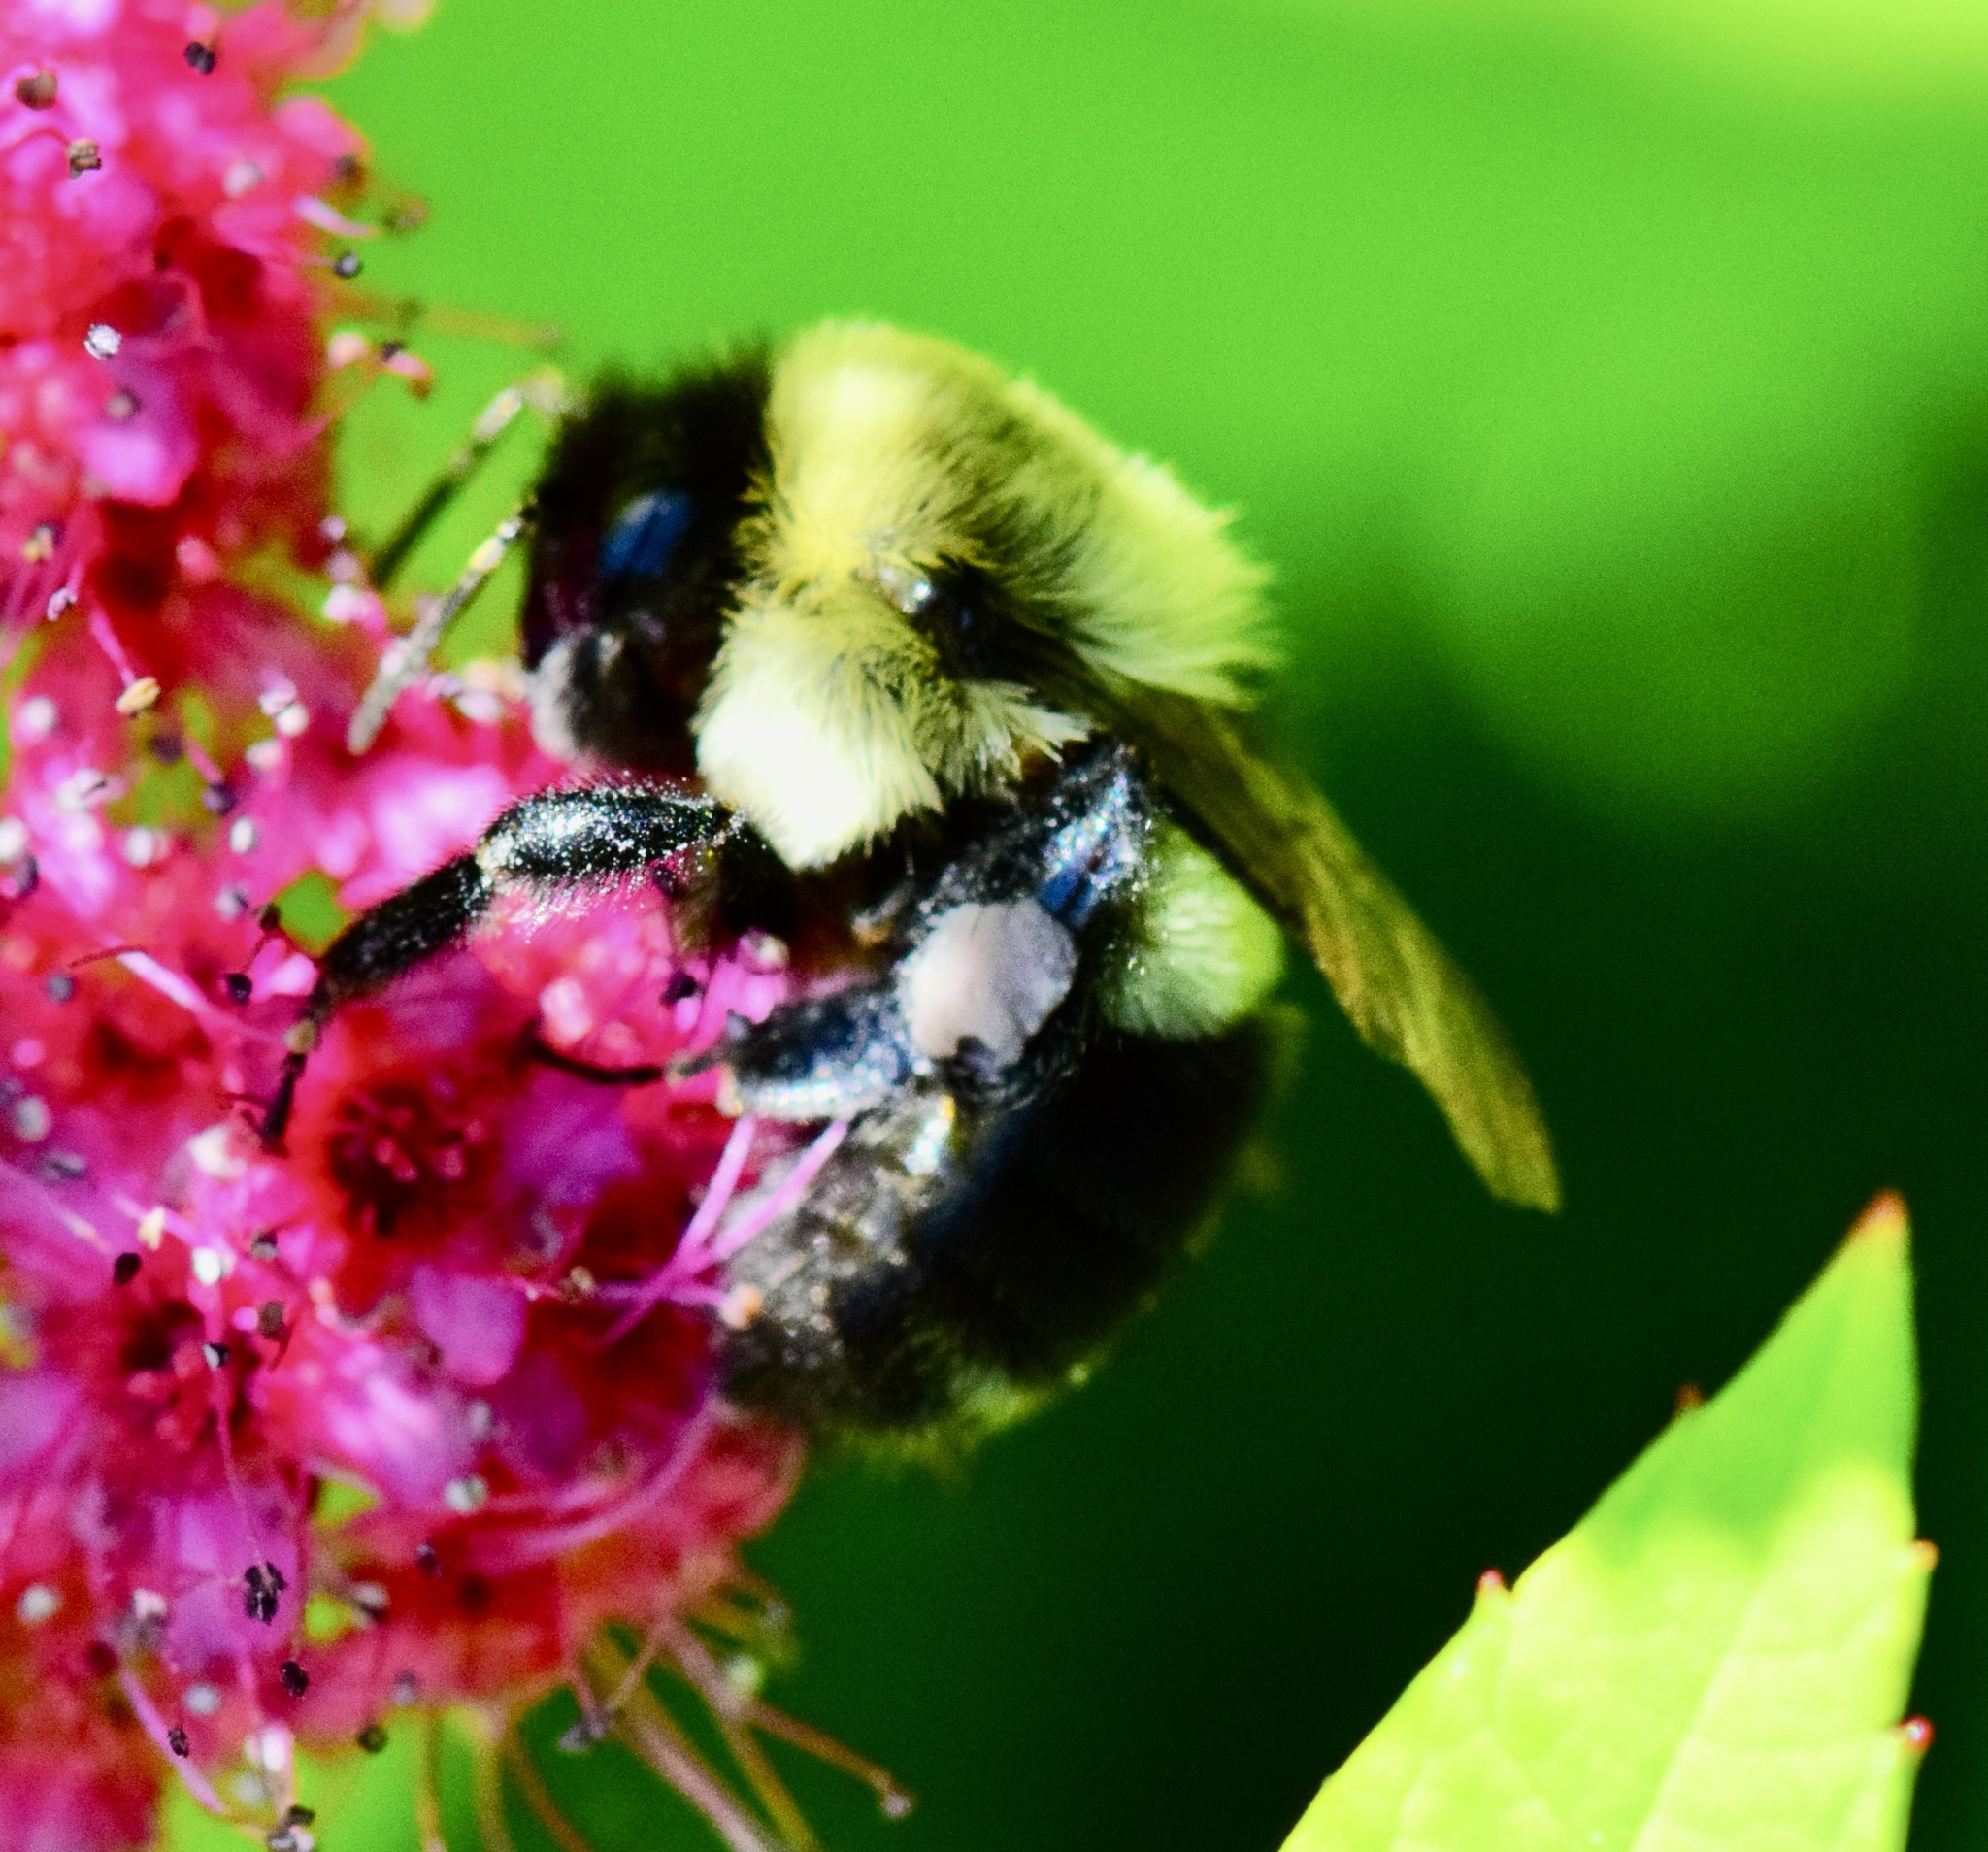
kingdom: Animalia
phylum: Arthropoda
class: Insecta
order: Hymenoptera
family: Apidae
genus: Bombus
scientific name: Bombus impatiens
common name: Common eastern bumble bee
